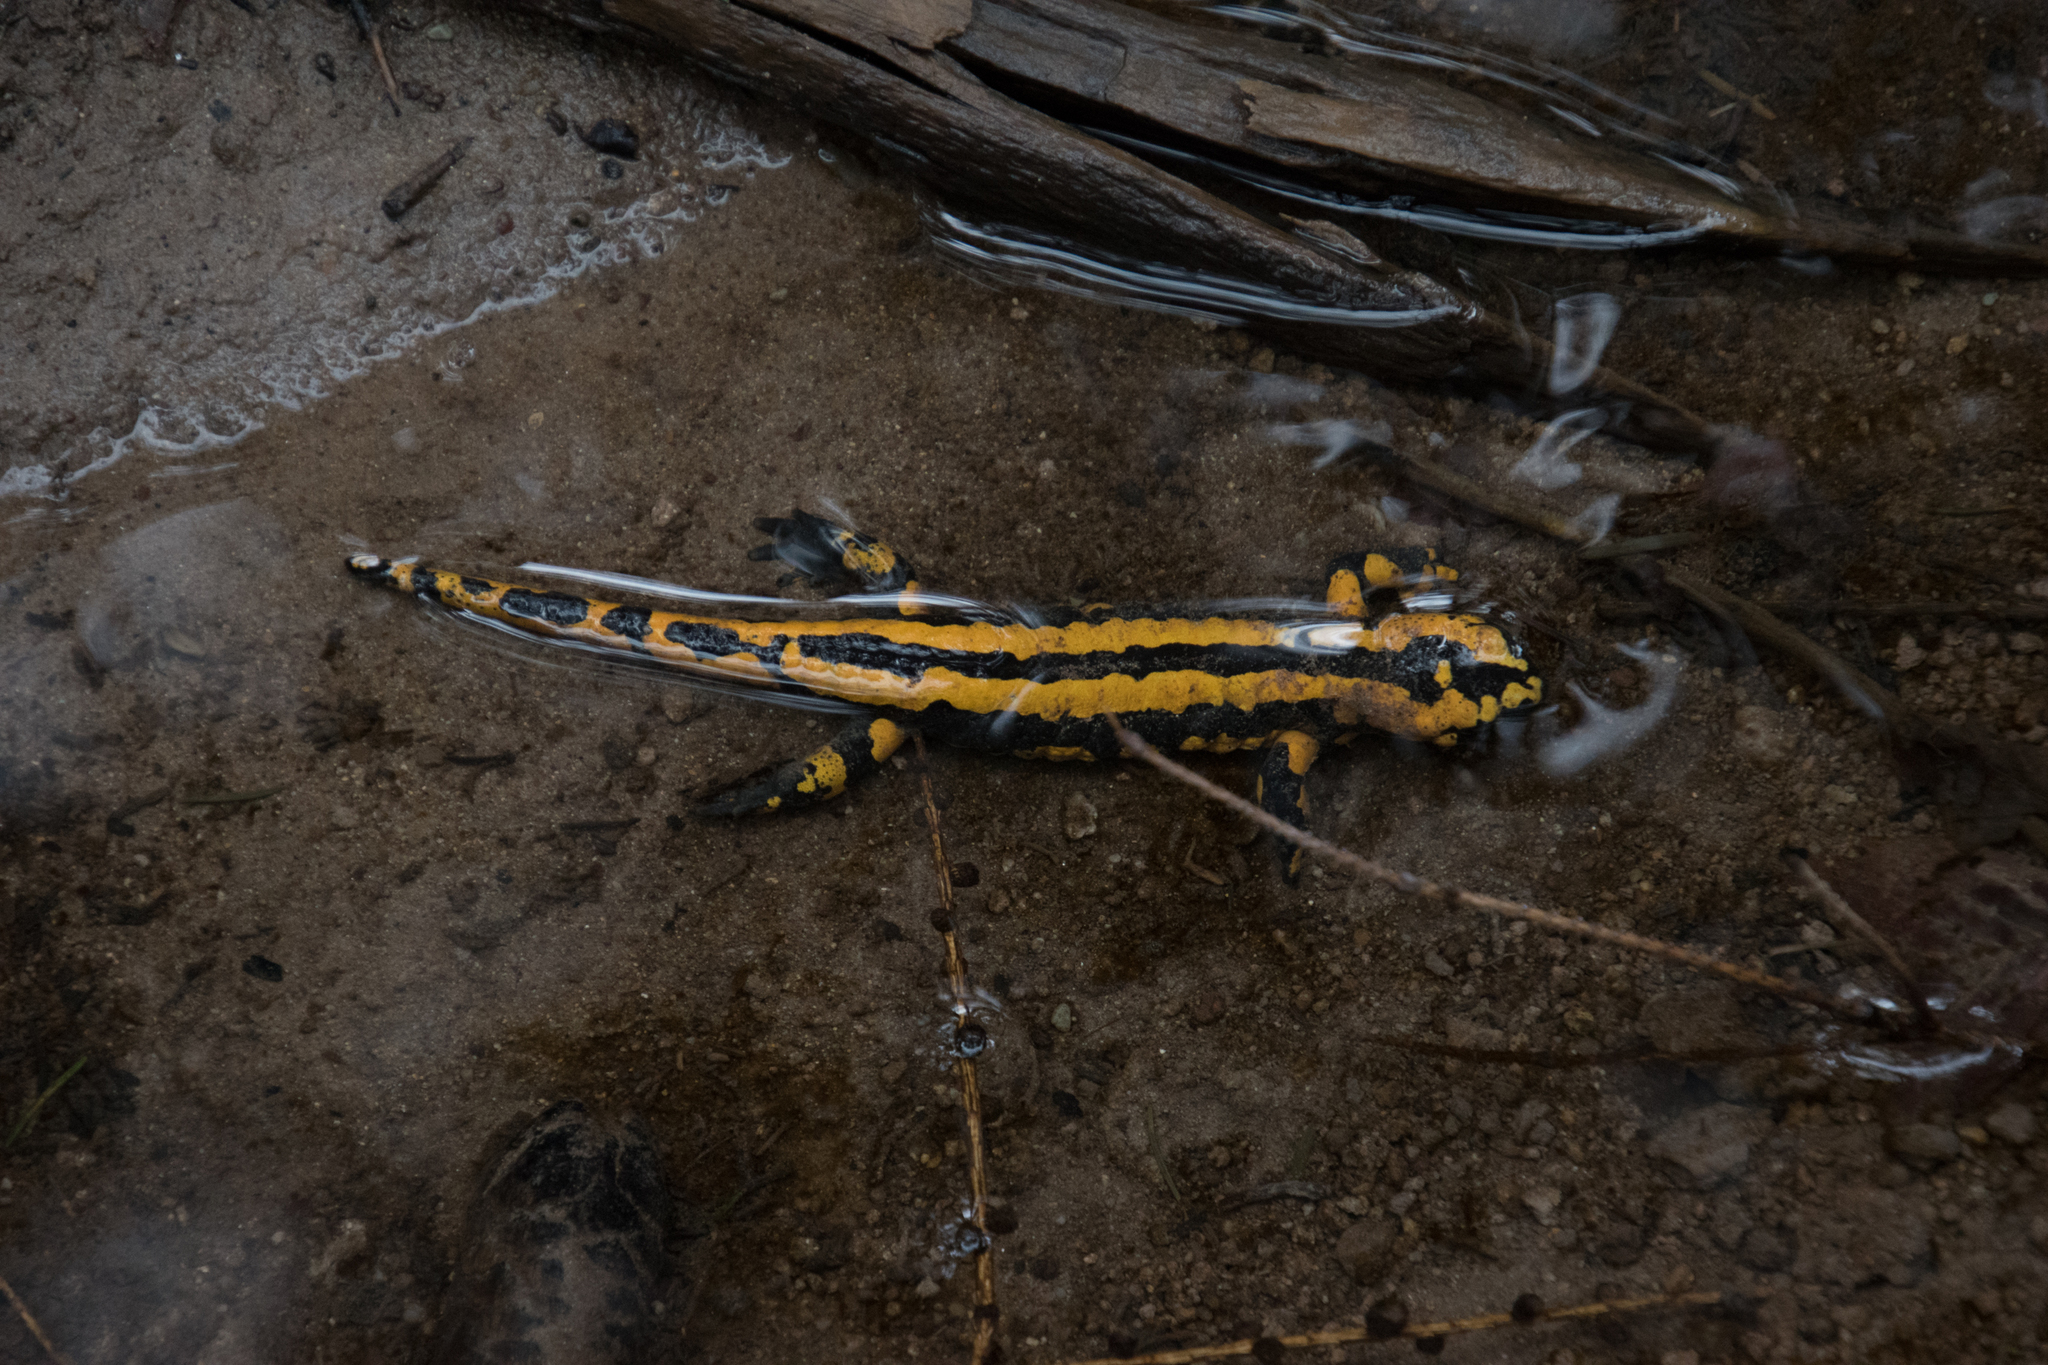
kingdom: Animalia
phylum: Chordata
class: Amphibia
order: Caudata
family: Salamandridae
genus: Salamandra
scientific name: Salamandra salamandra
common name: Fire salamander
